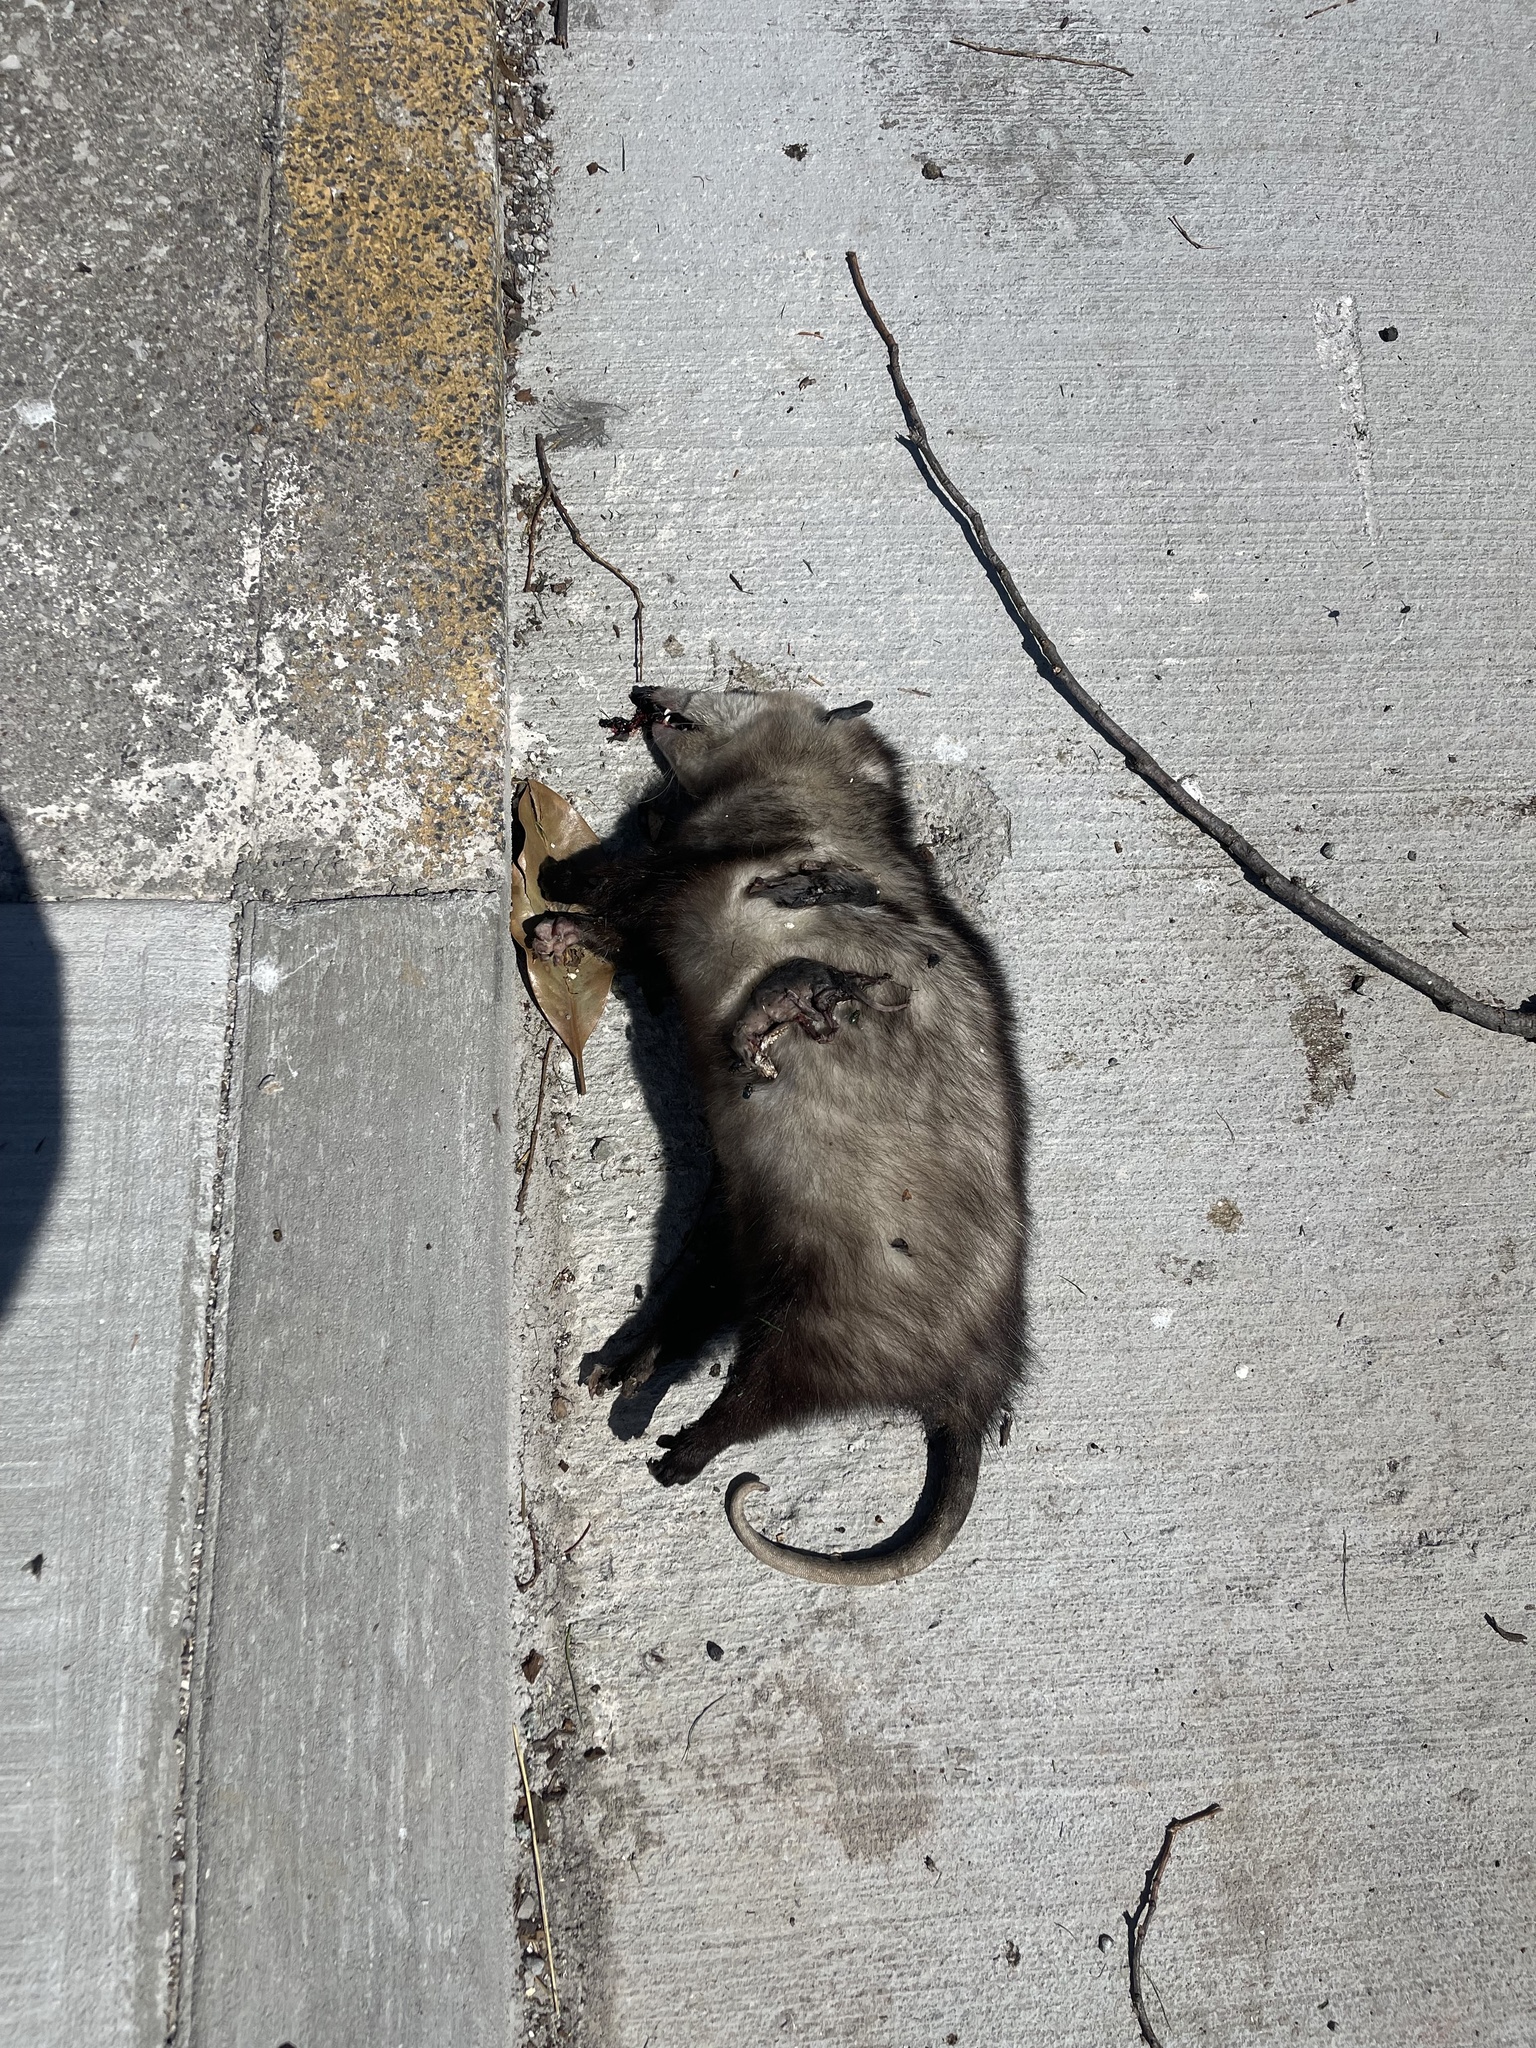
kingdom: Animalia
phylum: Chordata
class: Mammalia
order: Didelphimorphia
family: Didelphidae
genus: Didelphis
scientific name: Didelphis virginiana
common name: Virginia opossum
